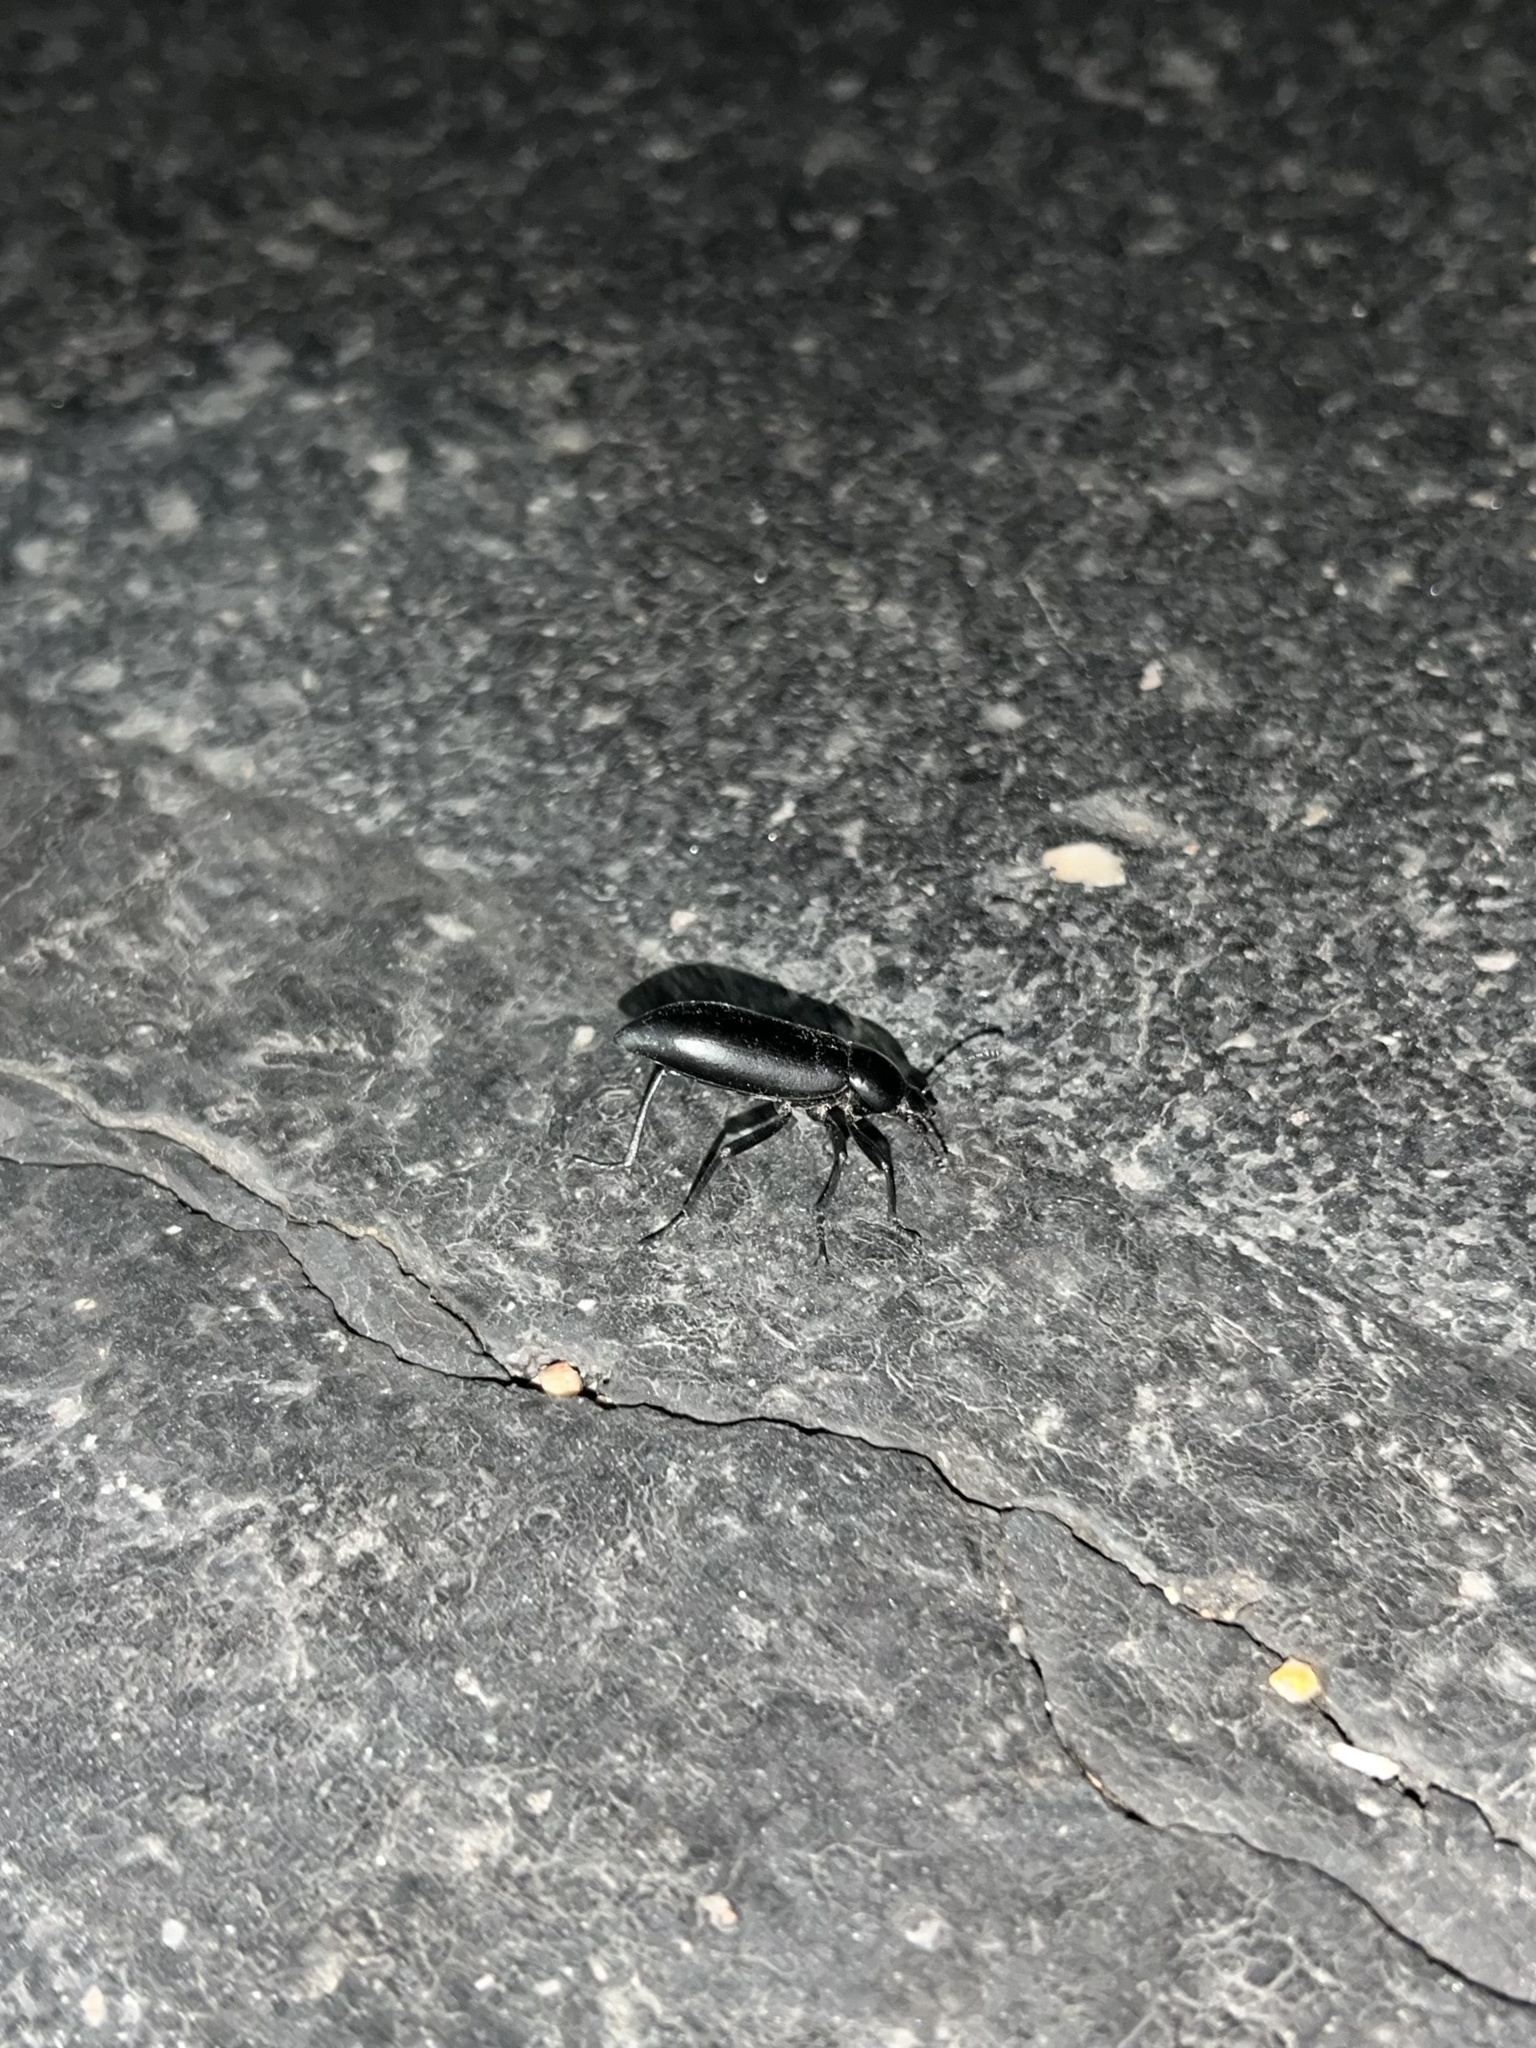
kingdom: Animalia
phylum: Arthropoda
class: Insecta
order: Coleoptera
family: Tenebrionidae
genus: Eleodes
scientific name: Eleodes longicollis
